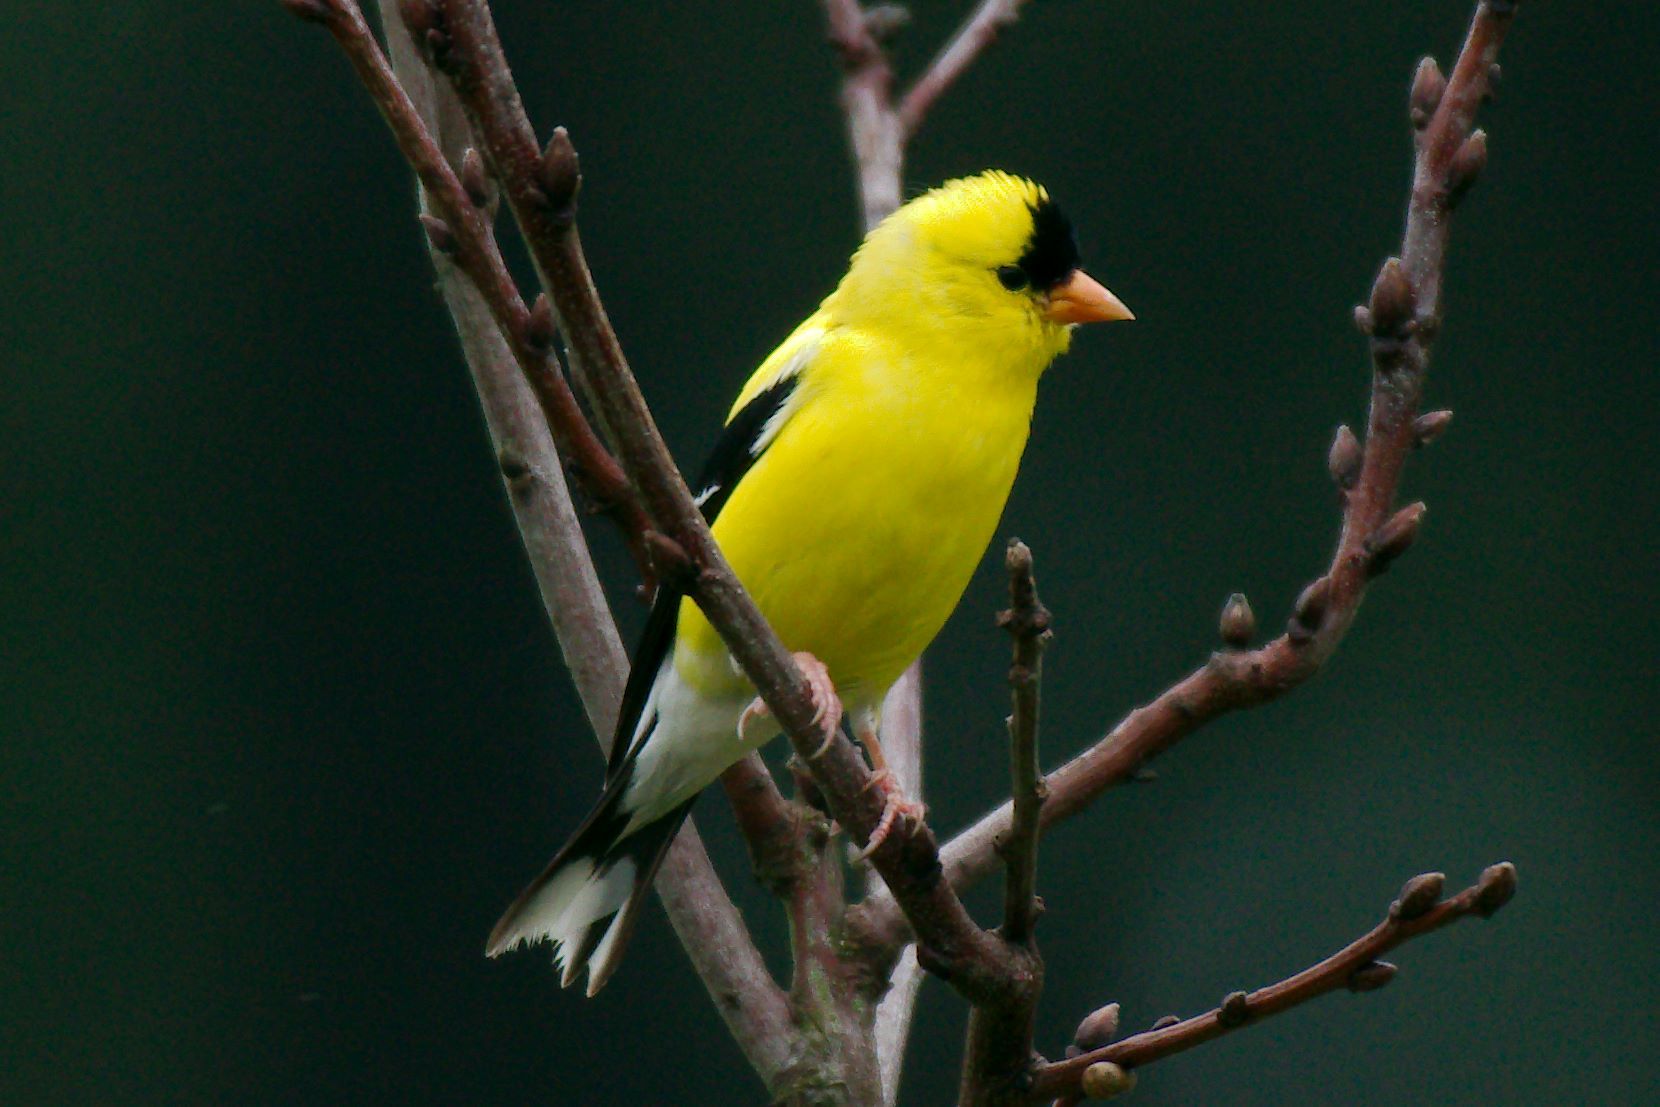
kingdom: Animalia
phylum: Chordata
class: Aves
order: Passeriformes
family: Fringillidae
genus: Spinus
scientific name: Spinus tristis
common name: American goldfinch
